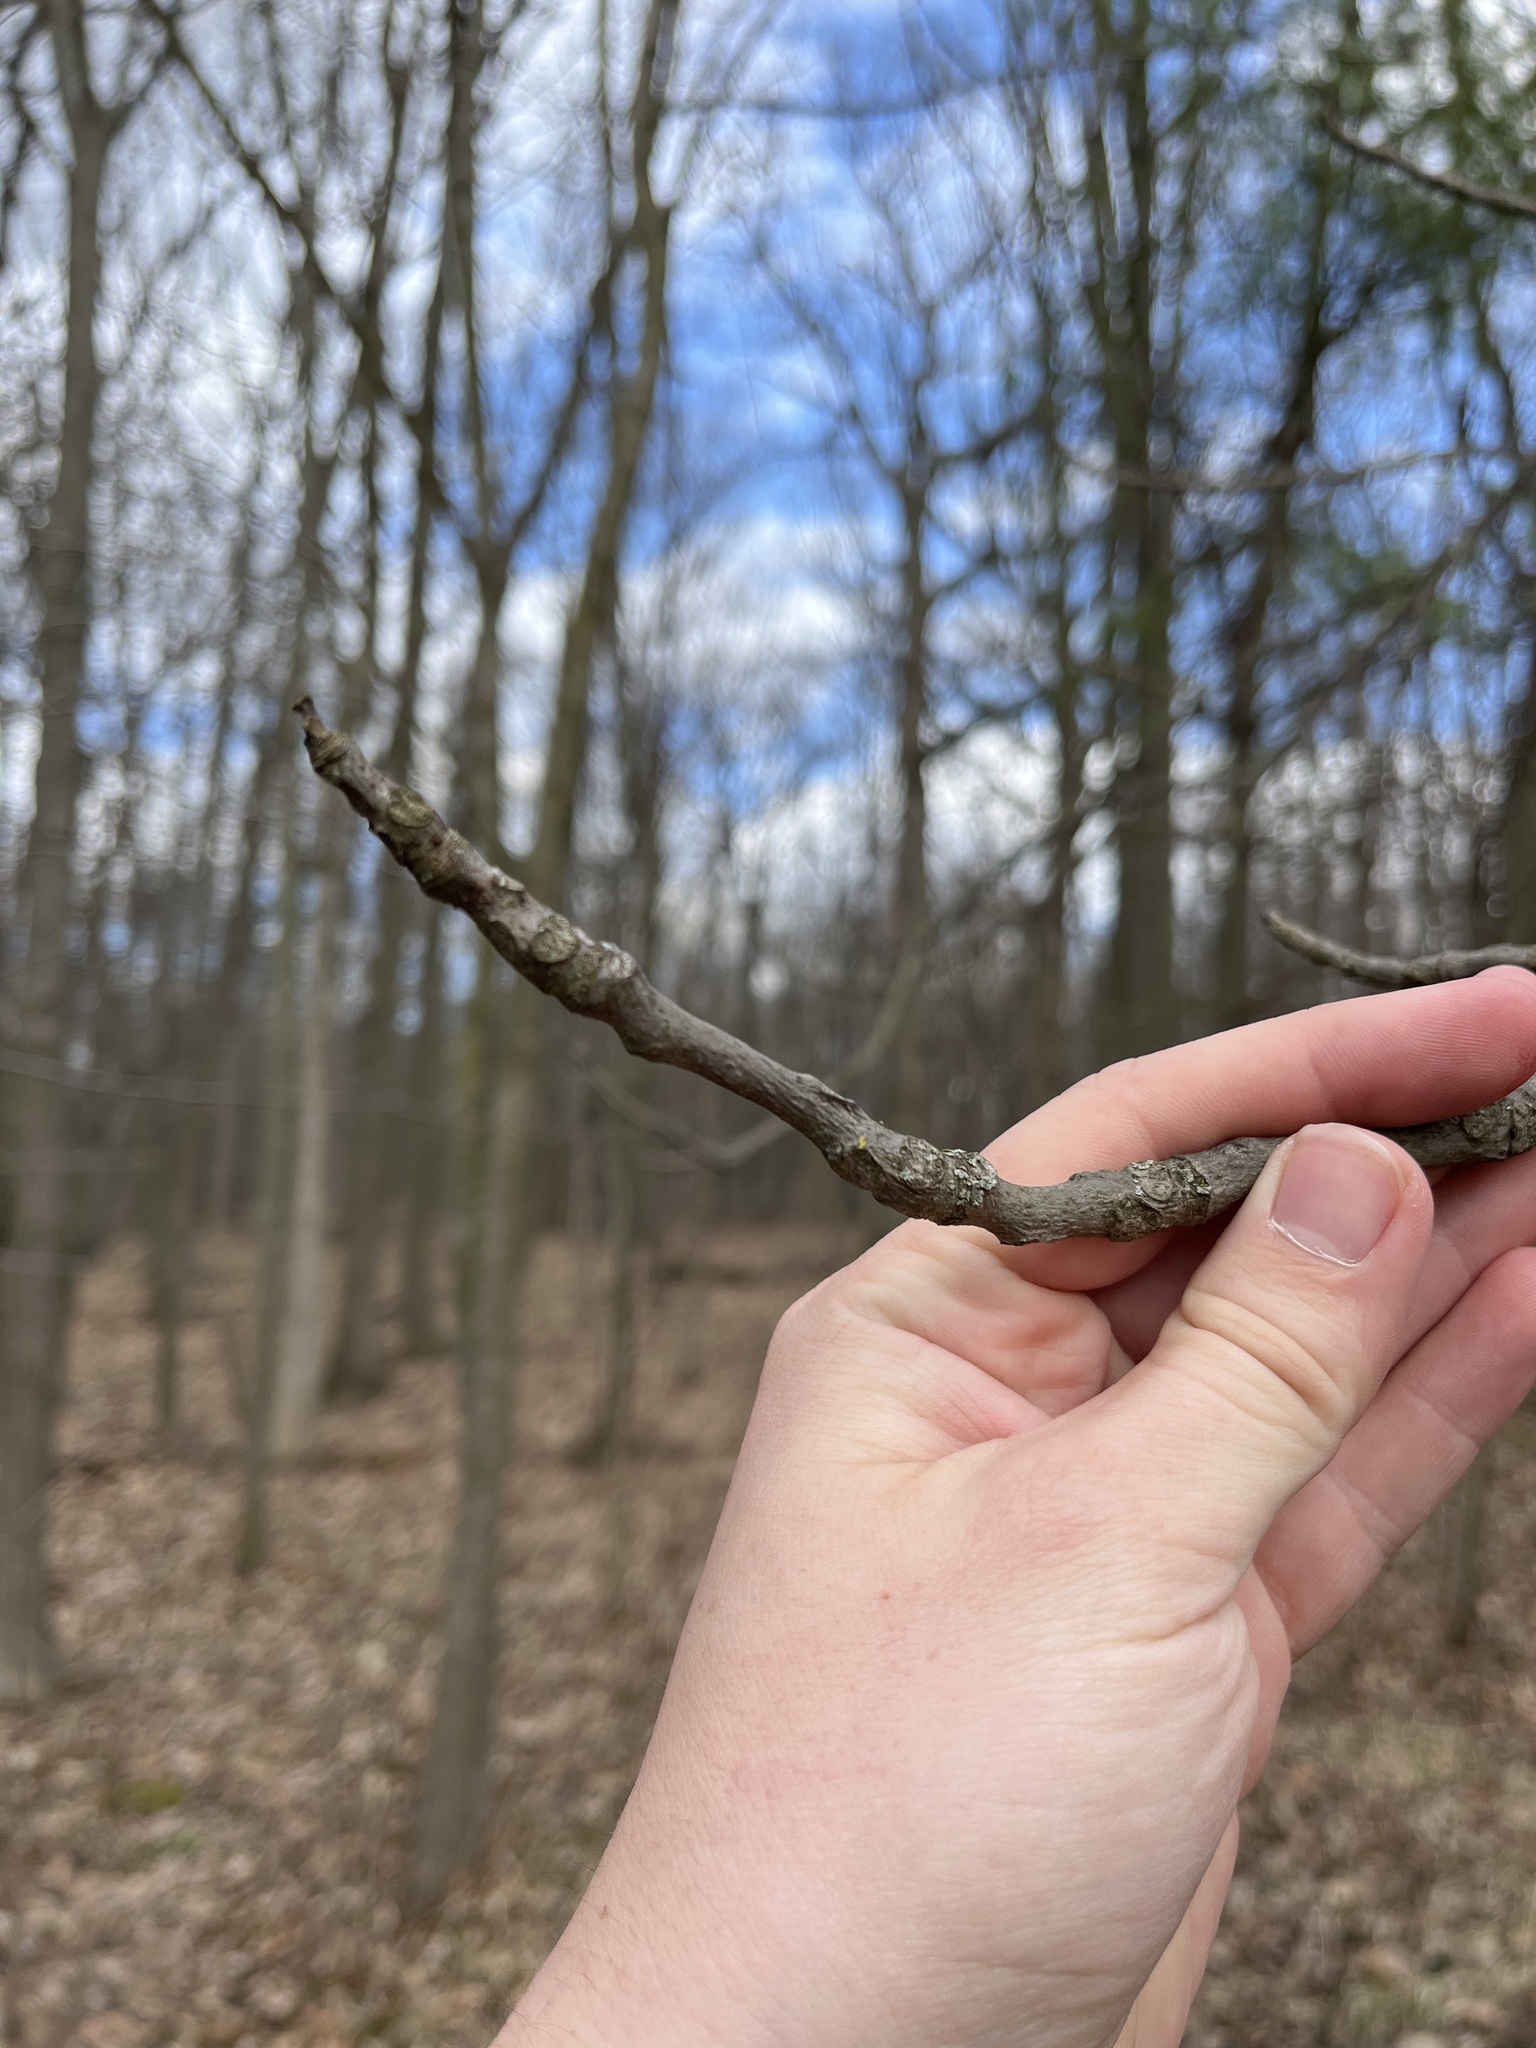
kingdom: Plantae
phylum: Tracheophyta
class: Magnoliopsida
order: Fagales
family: Juglandaceae
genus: Carya
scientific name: Carya ovata
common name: Shagbark hickory
